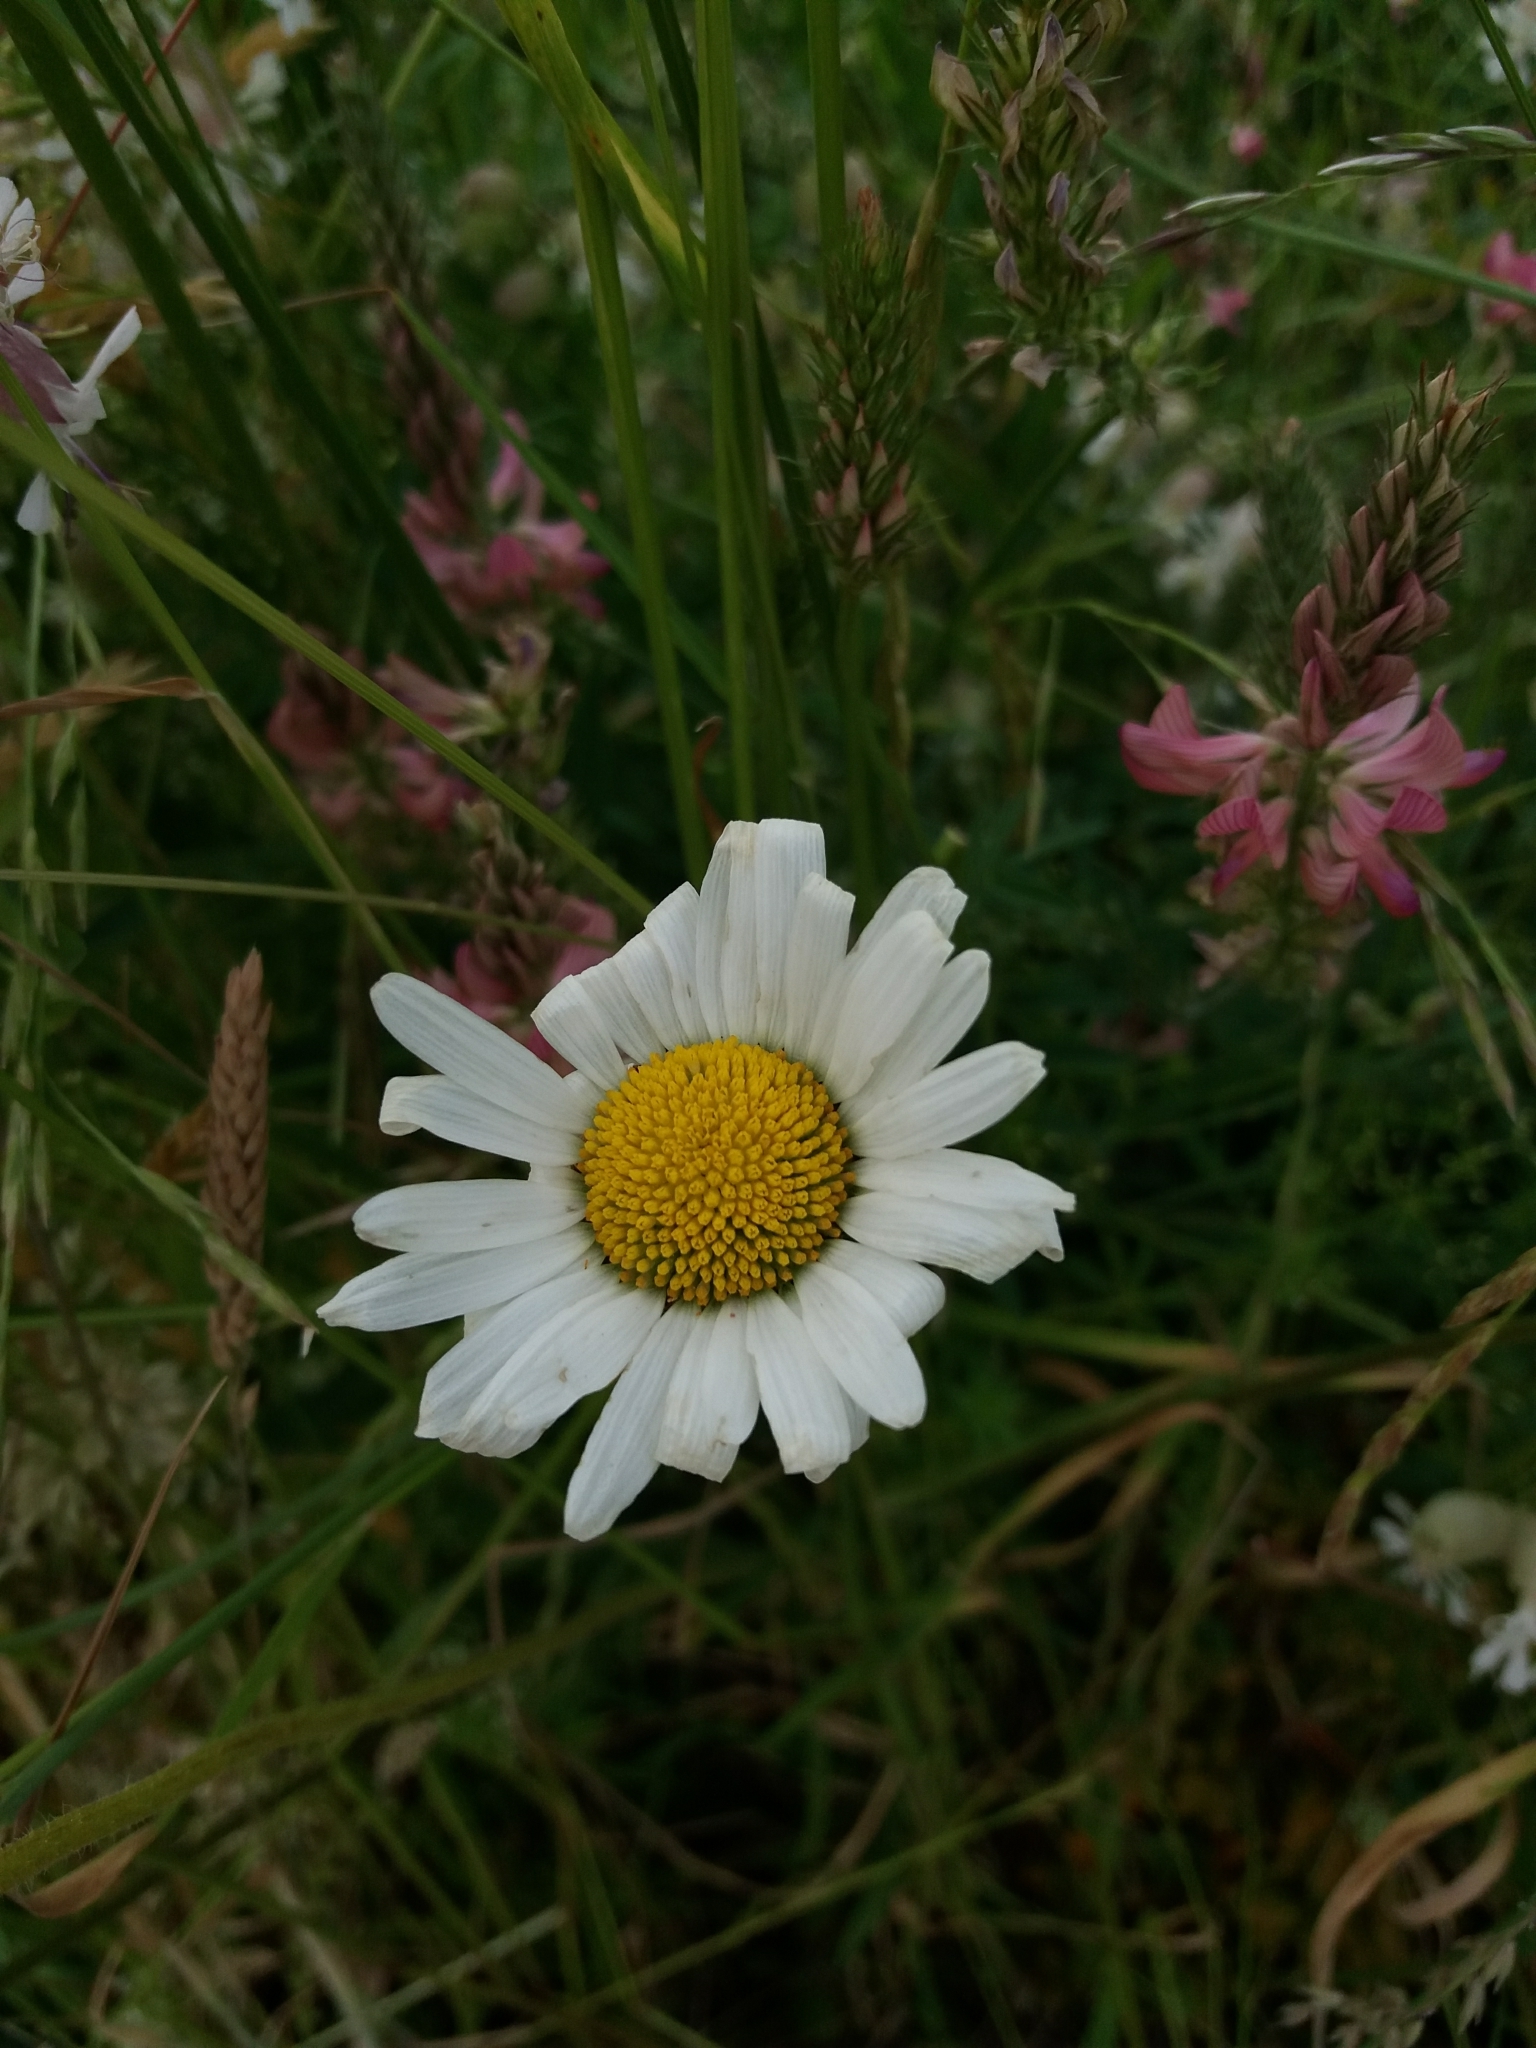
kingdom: Plantae
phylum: Tracheophyta
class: Magnoliopsida
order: Asterales
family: Asteraceae
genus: Leucanthemum
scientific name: Leucanthemum vulgare
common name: Oxeye daisy
